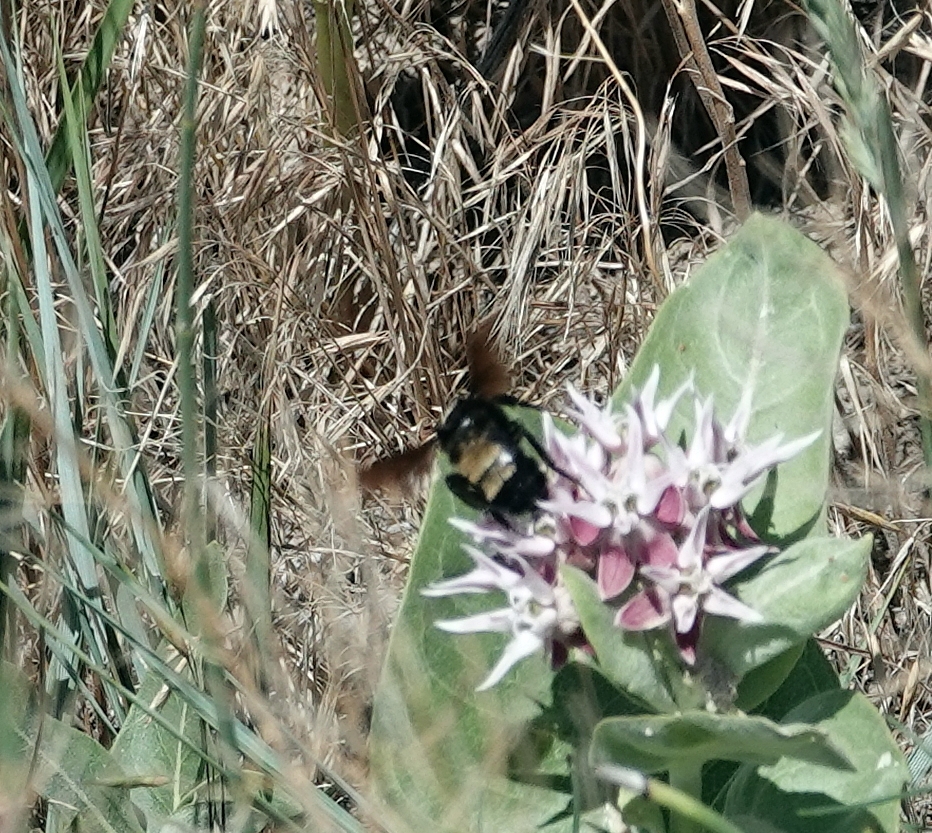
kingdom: Animalia
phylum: Arthropoda
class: Insecta
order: Hymenoptera
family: Apidae
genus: Bombus
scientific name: Bombus pensylvanicus
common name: Bumble bee
